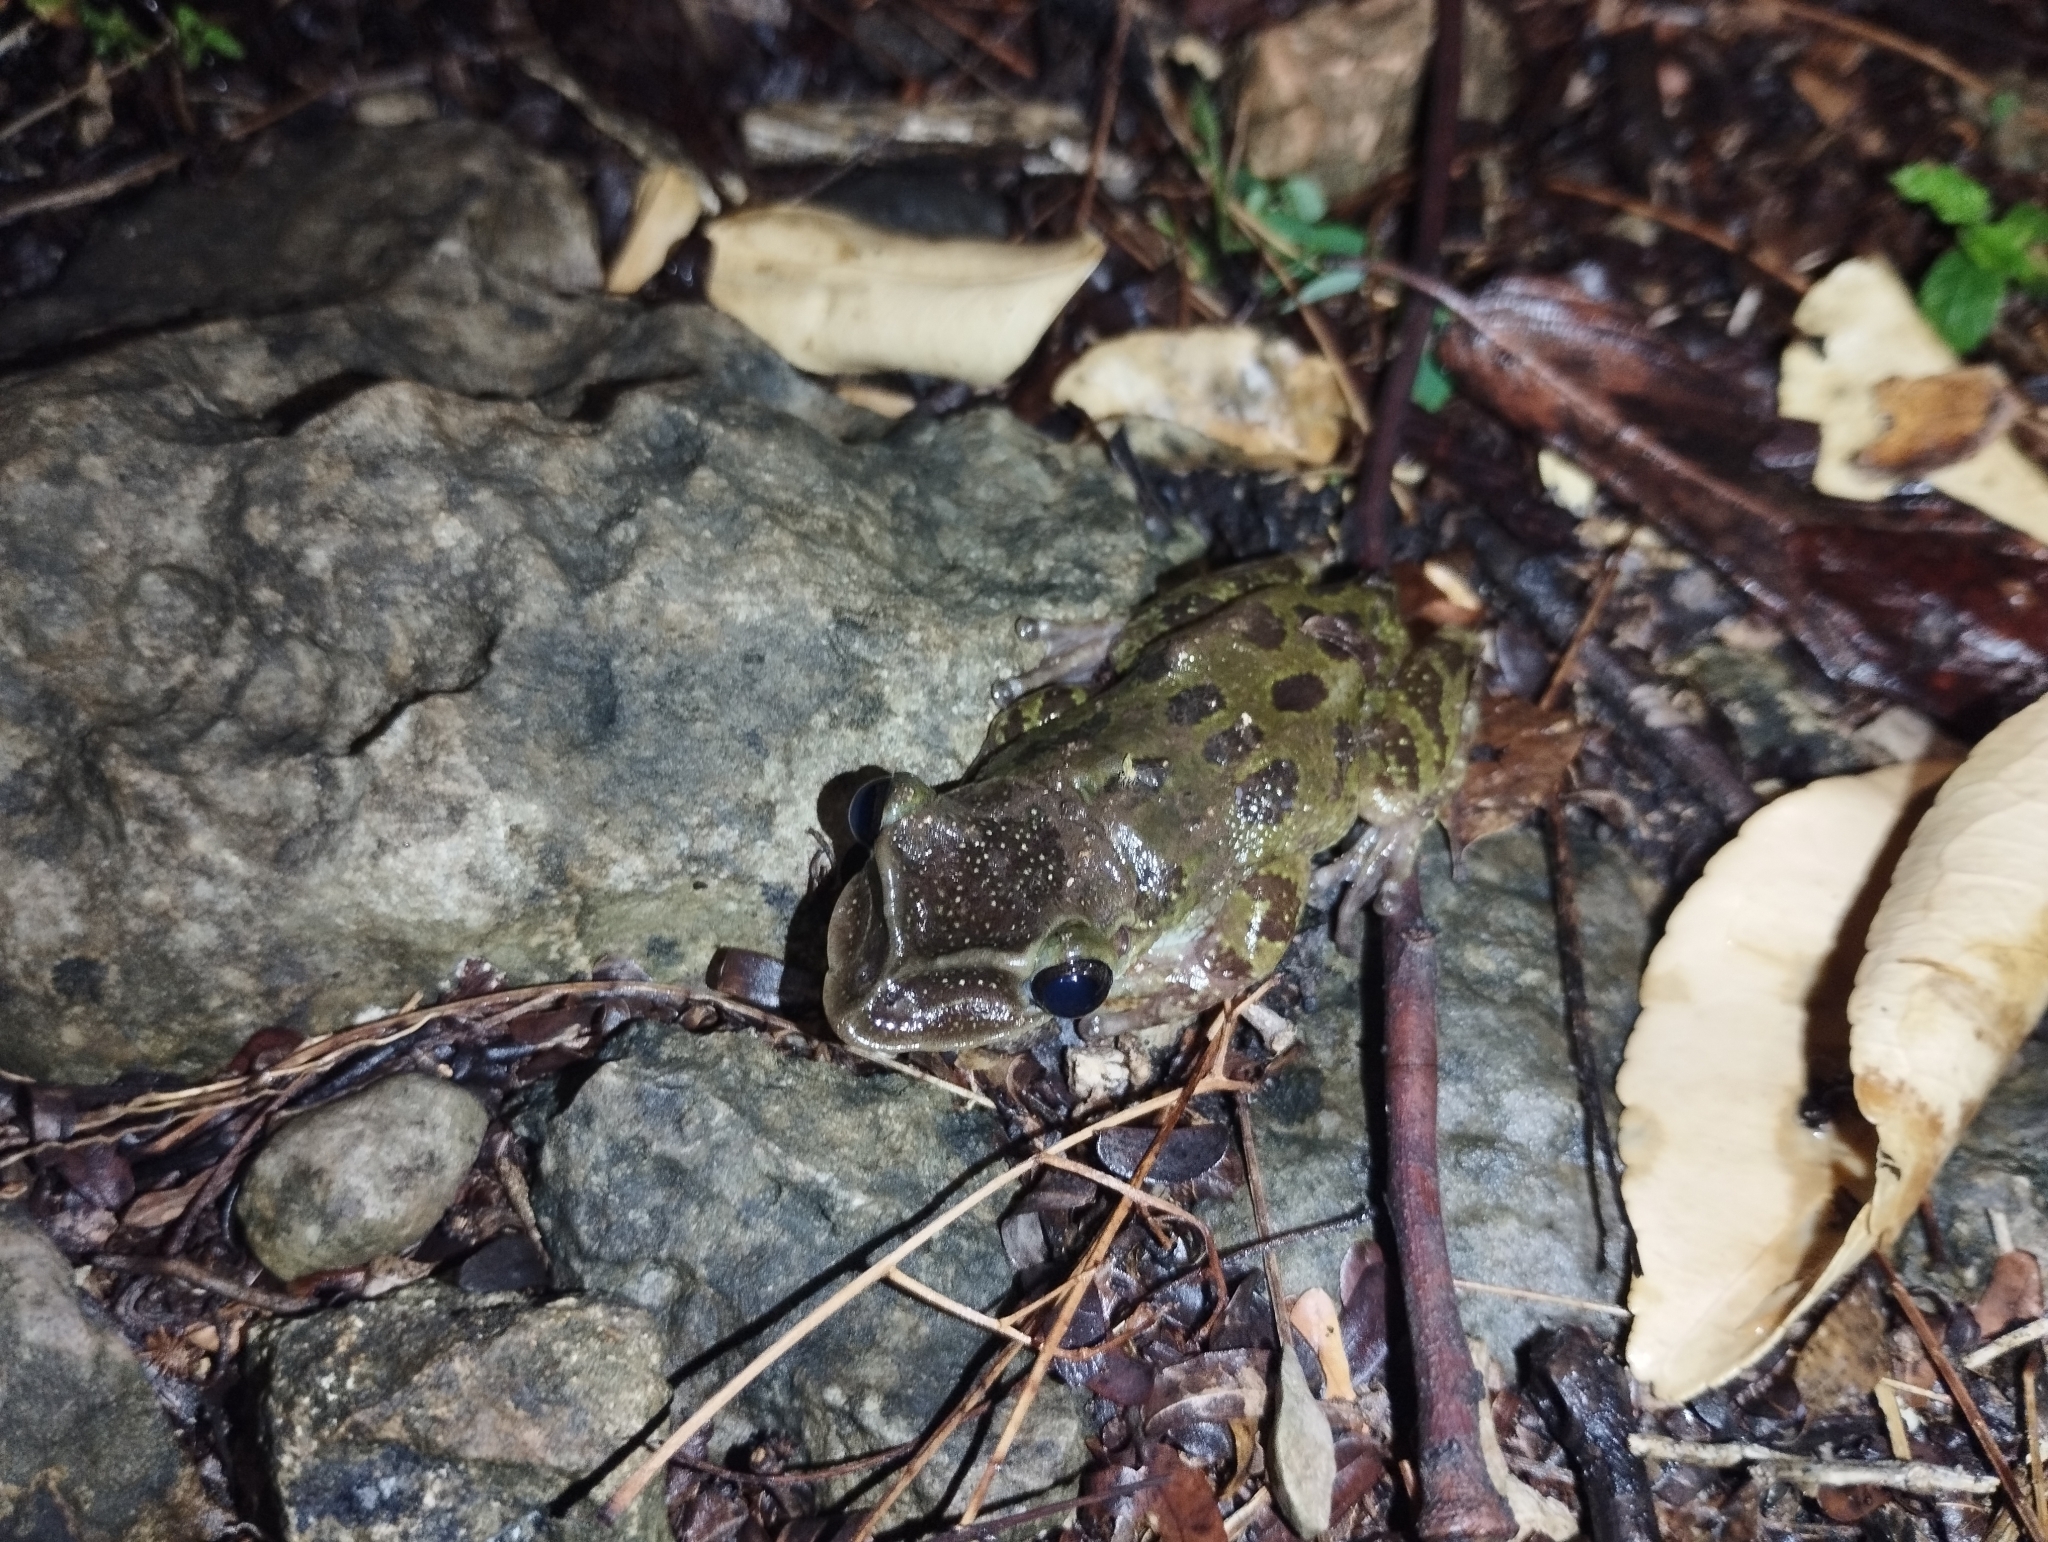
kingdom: Animalia
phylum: Chordata
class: Amphibia
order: Anura
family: Hylidae
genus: Triprion
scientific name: Triprion petasatus
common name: Yucatecan casque-headed treefrog
